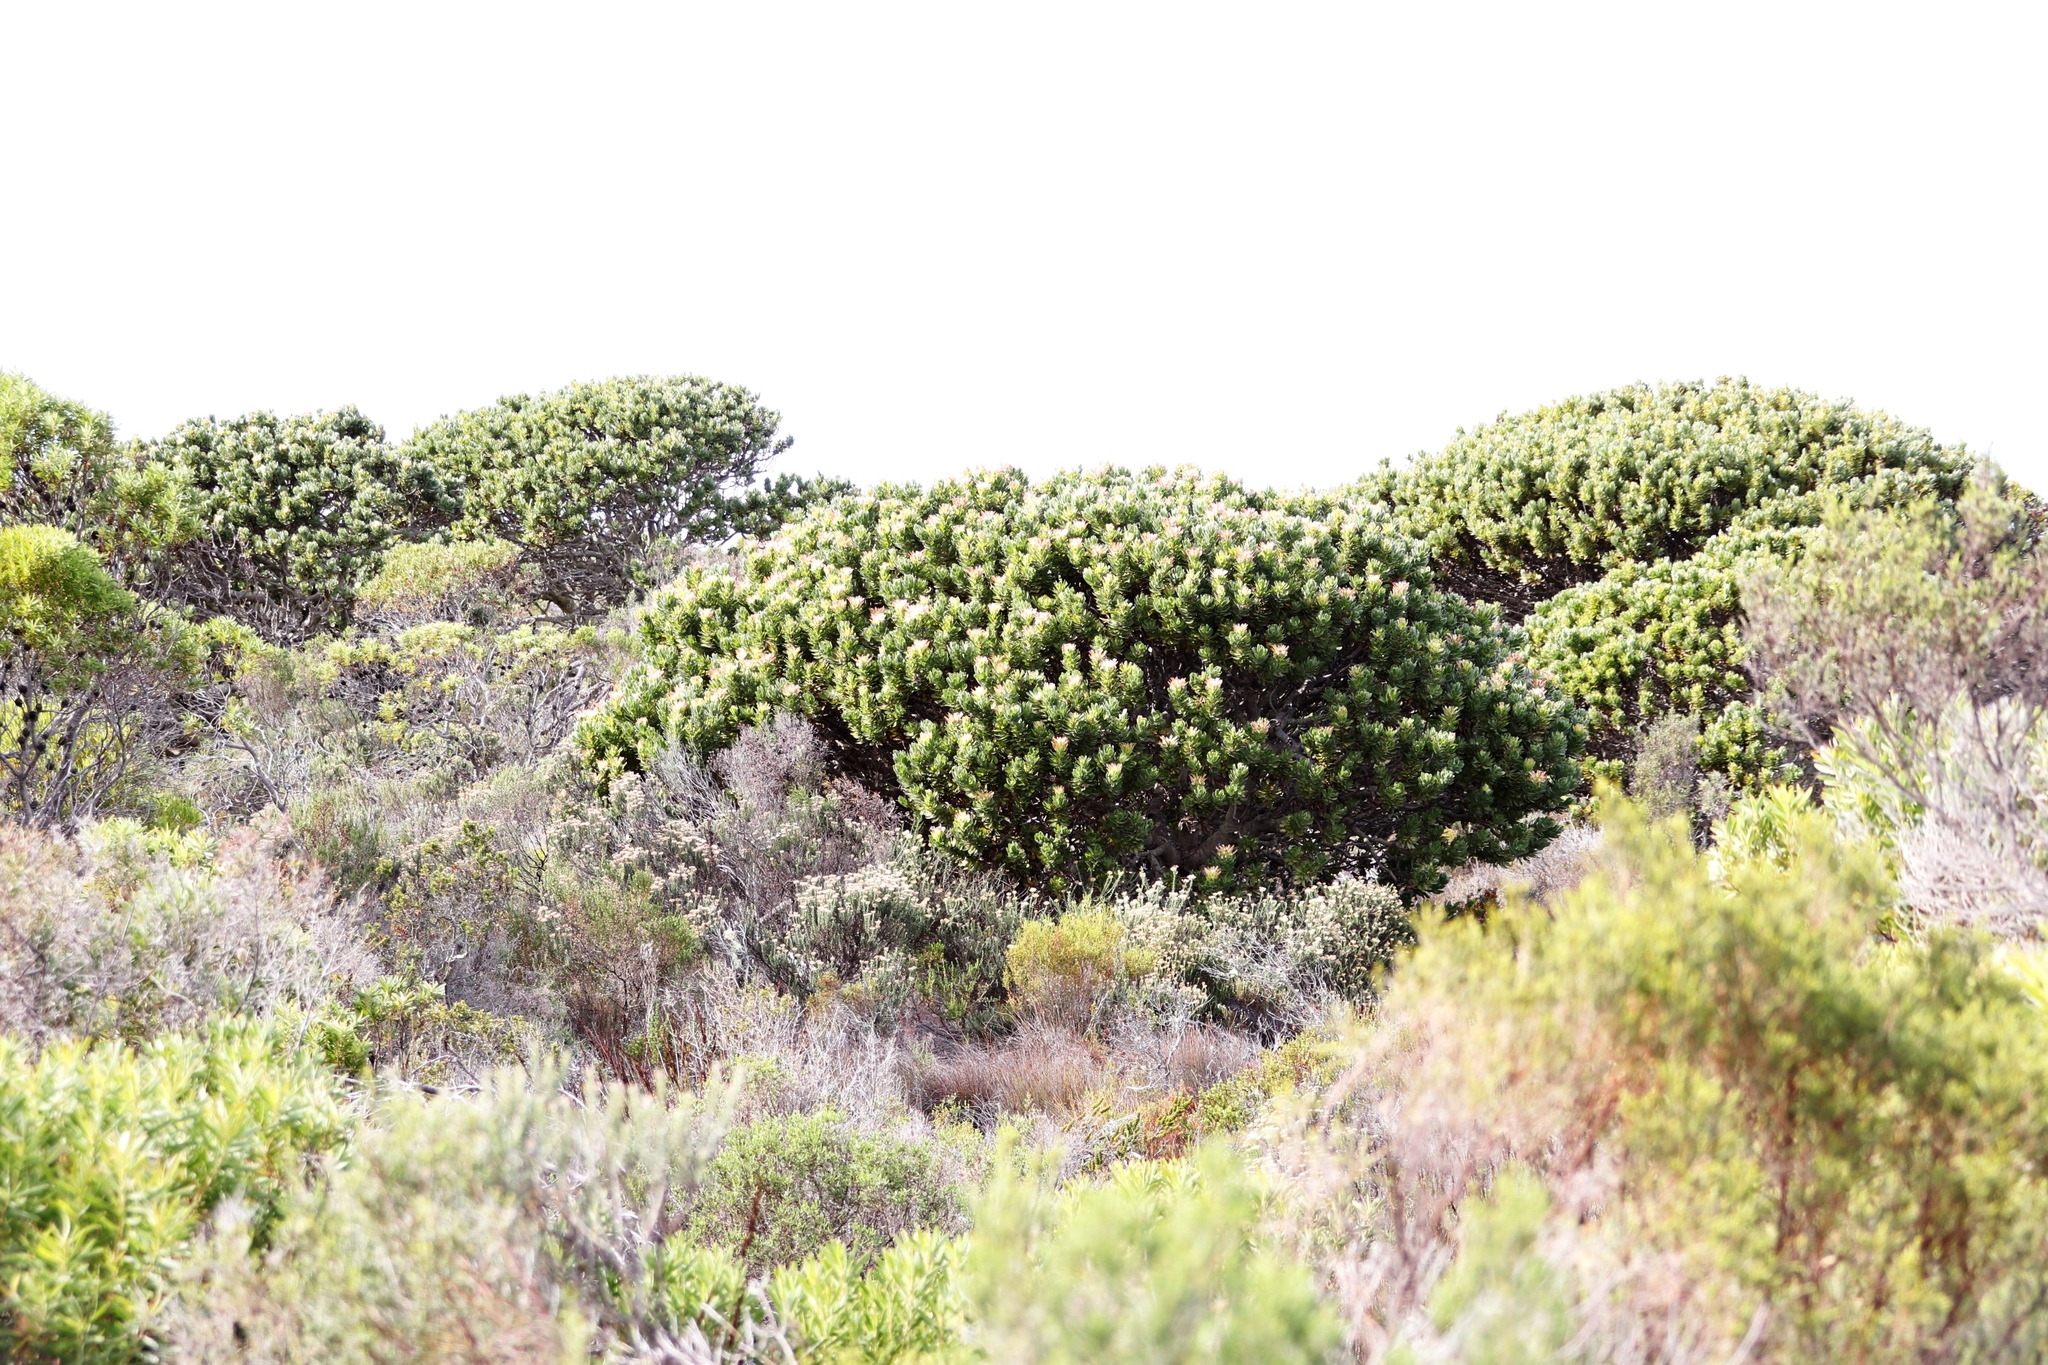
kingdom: Plantae
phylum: Tracheophyta
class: Magnoliopsida
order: Proteales
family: Proteaceae
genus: Mimetes
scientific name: Mimetes fimbriifolius
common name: Fringed bottlebrush
